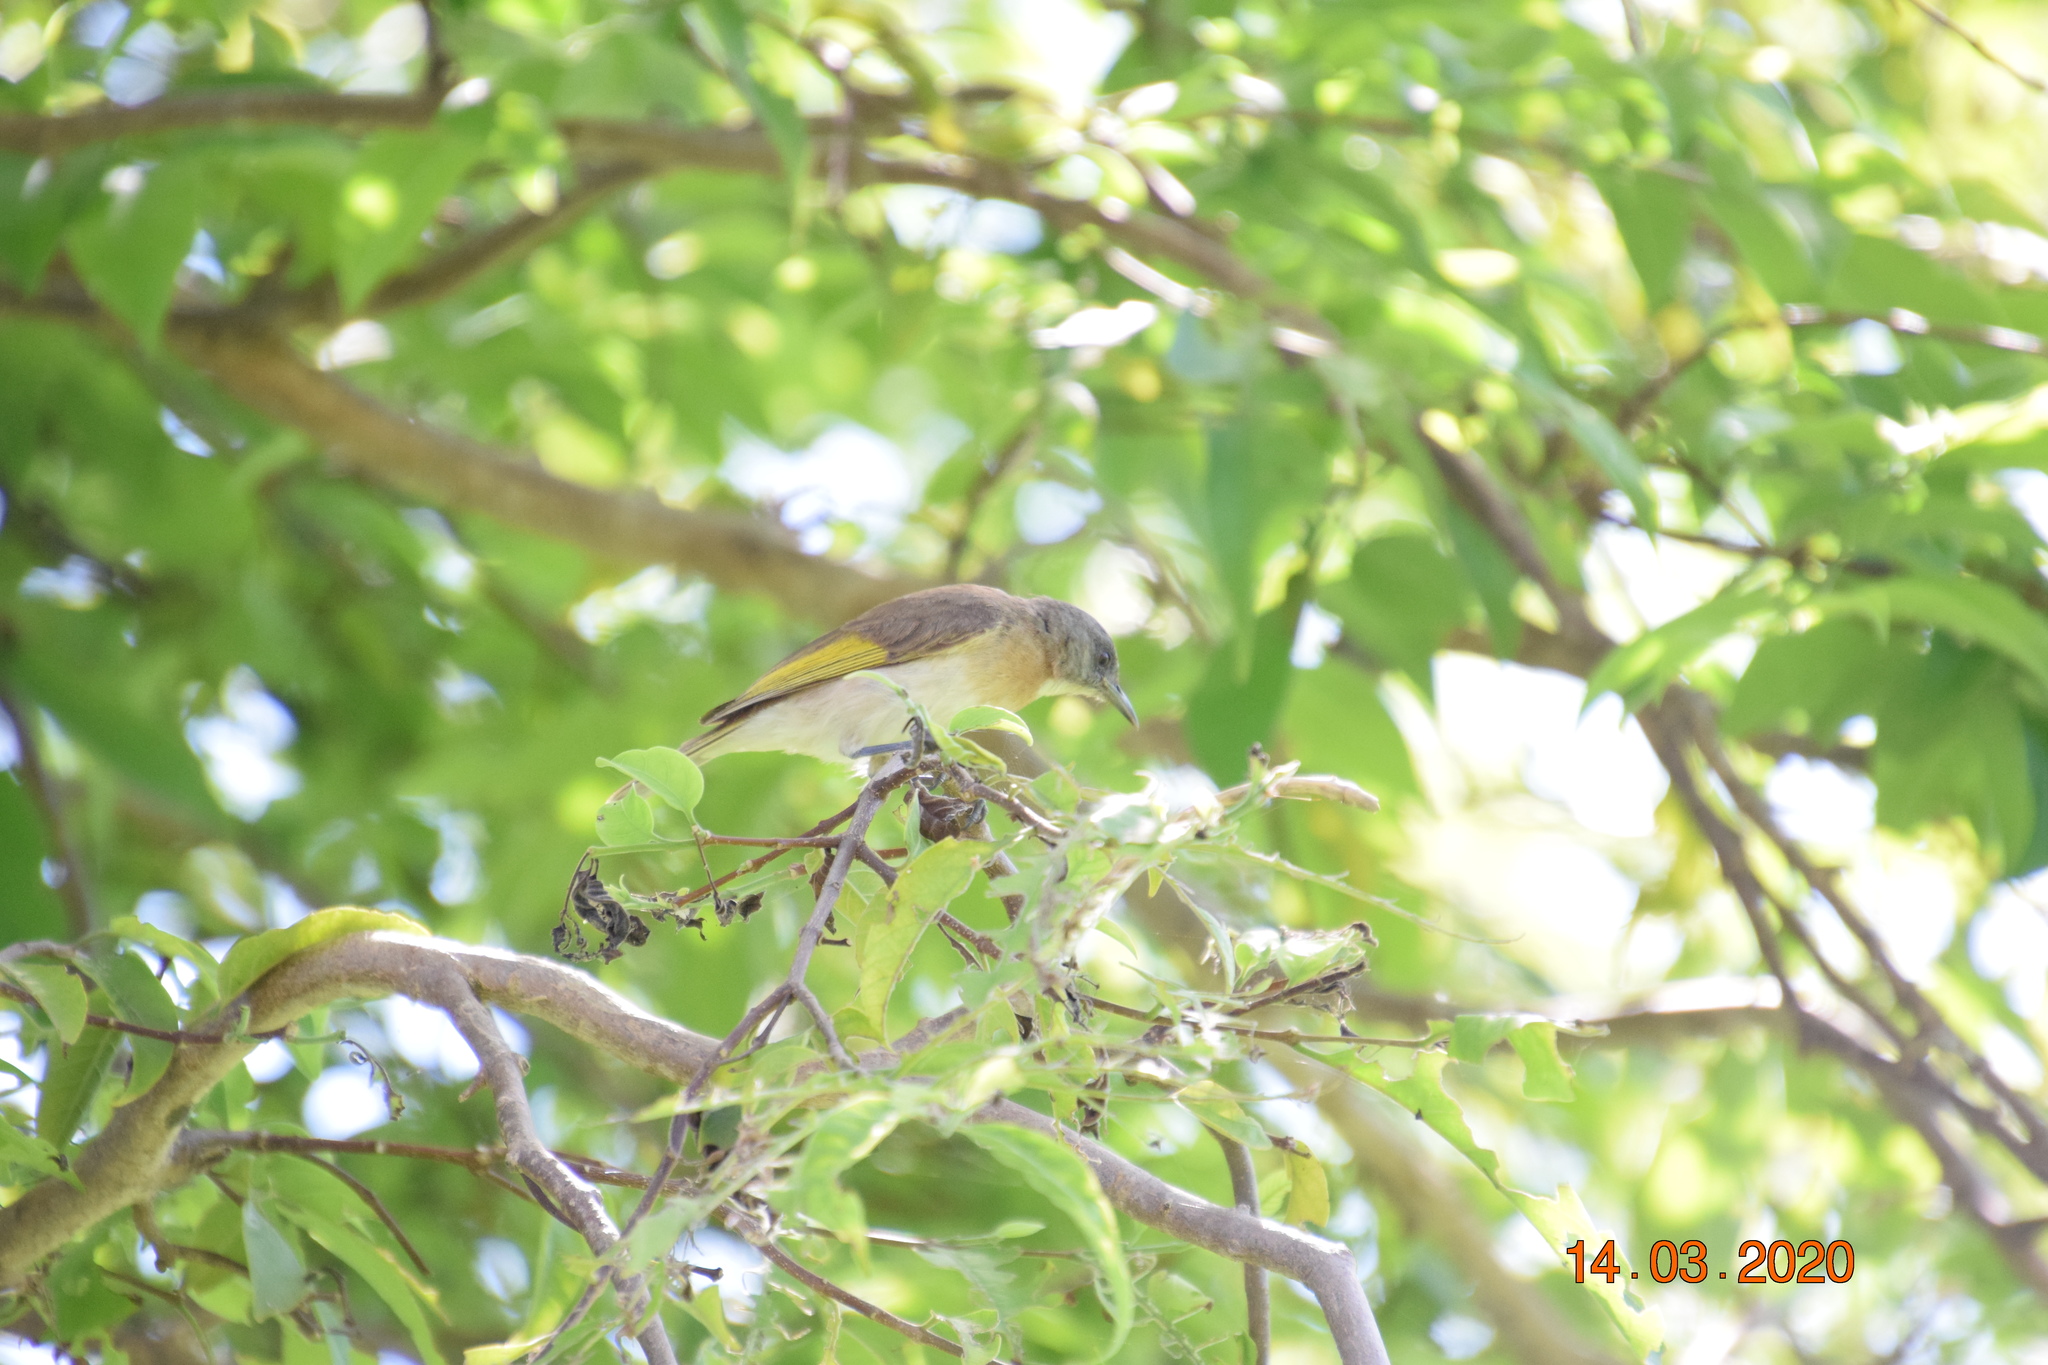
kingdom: Animalia
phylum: Chordata
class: Aves
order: Passeriformes
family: Meliphagidae
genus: Conopophila
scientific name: Conopophila albogularis
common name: Rufous-banded honeyeater
